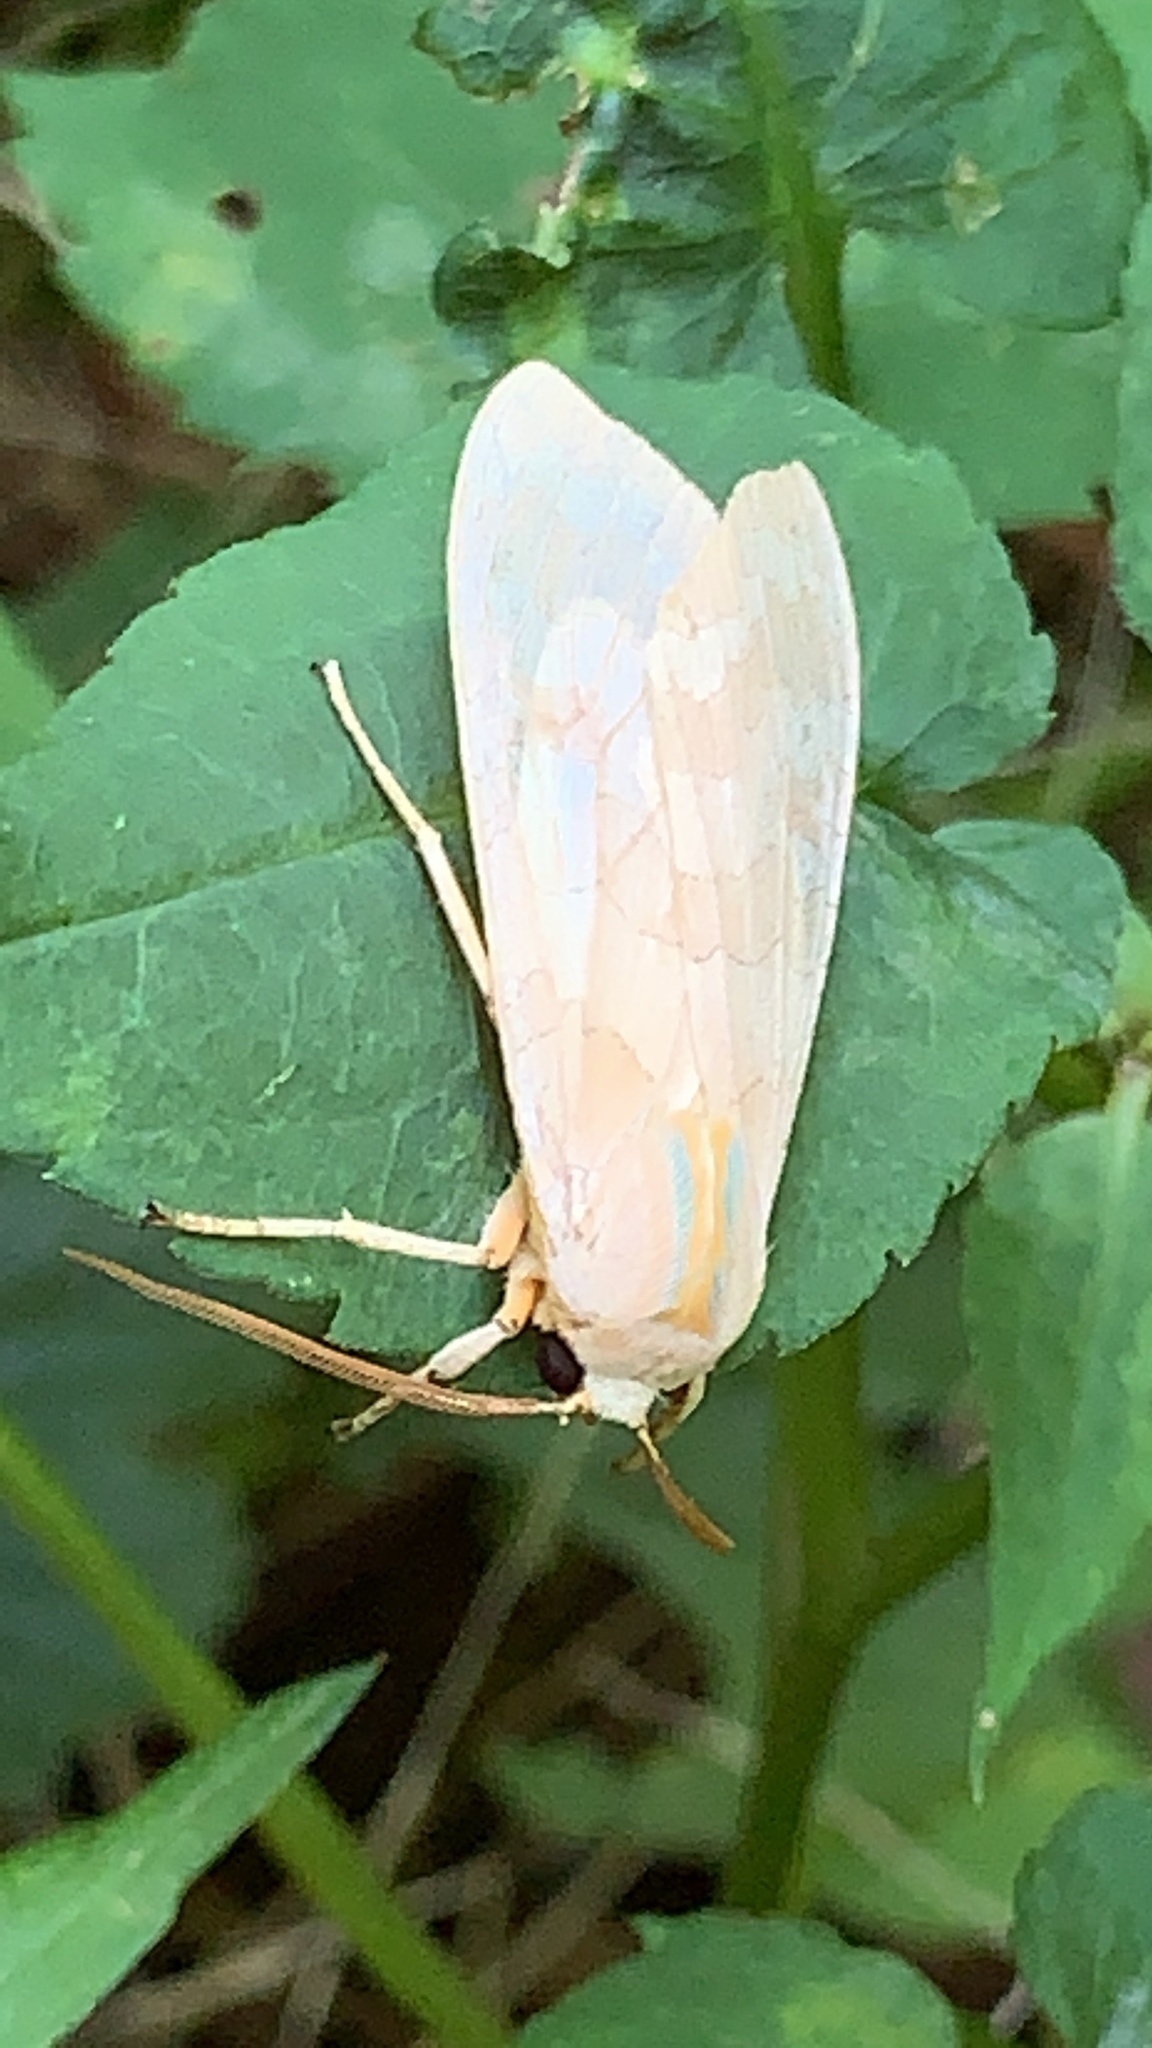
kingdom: Animalia
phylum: Arthropoda
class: Insecta
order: Lepidoptera
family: Erebidae
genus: Halysidota
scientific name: Halysidota
